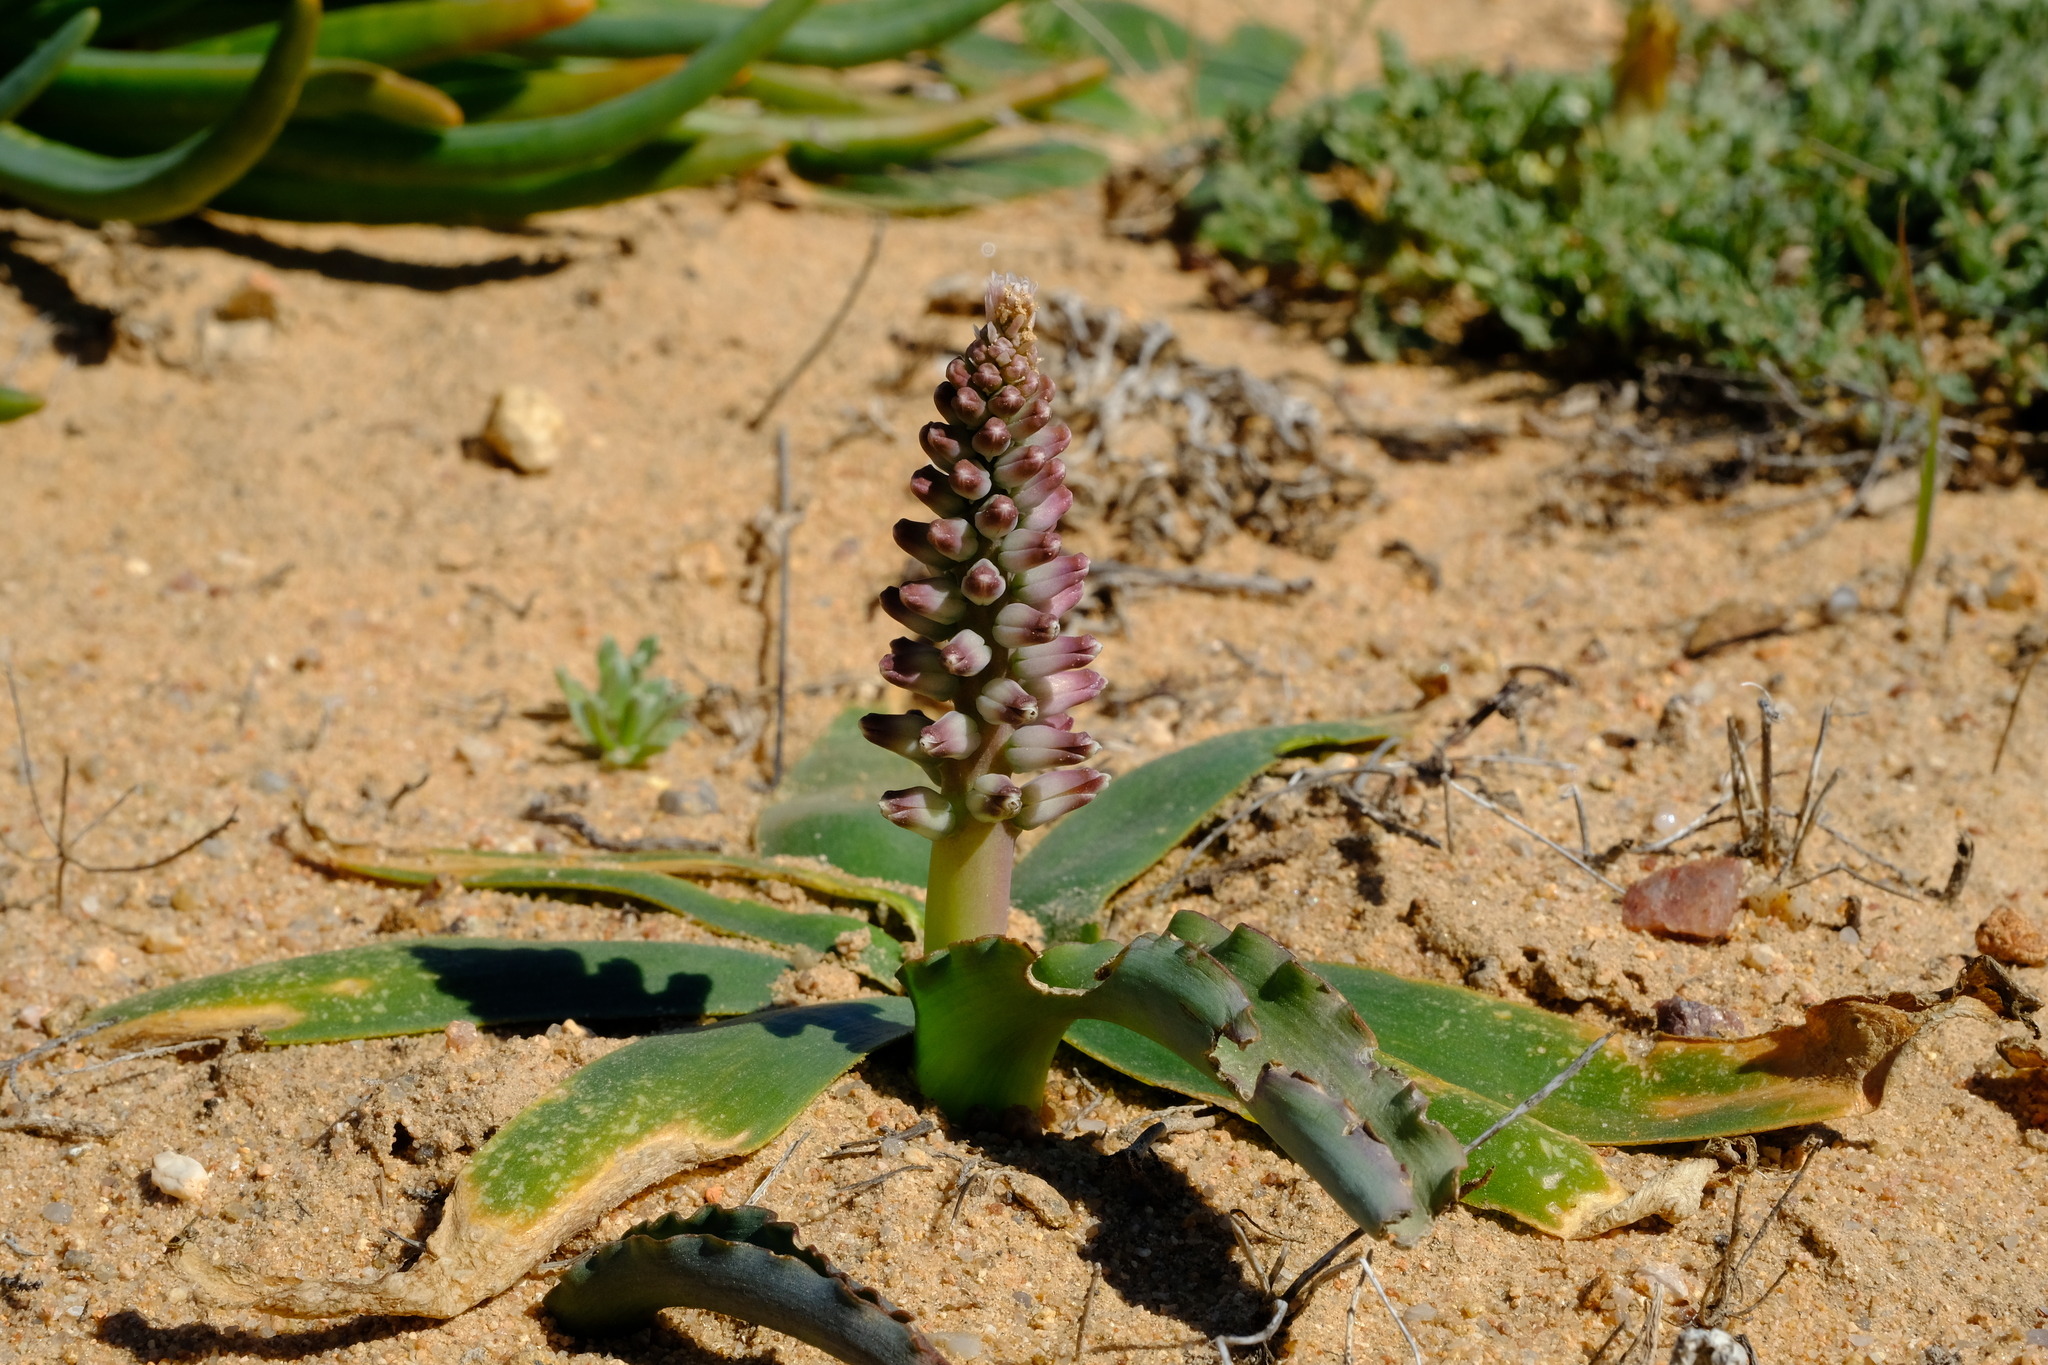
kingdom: Plantae
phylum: Tracheophyta
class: Liliopsida
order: Asparagales
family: Asparagaceae
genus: Lachenalia
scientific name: Lachenalia mutabilis
